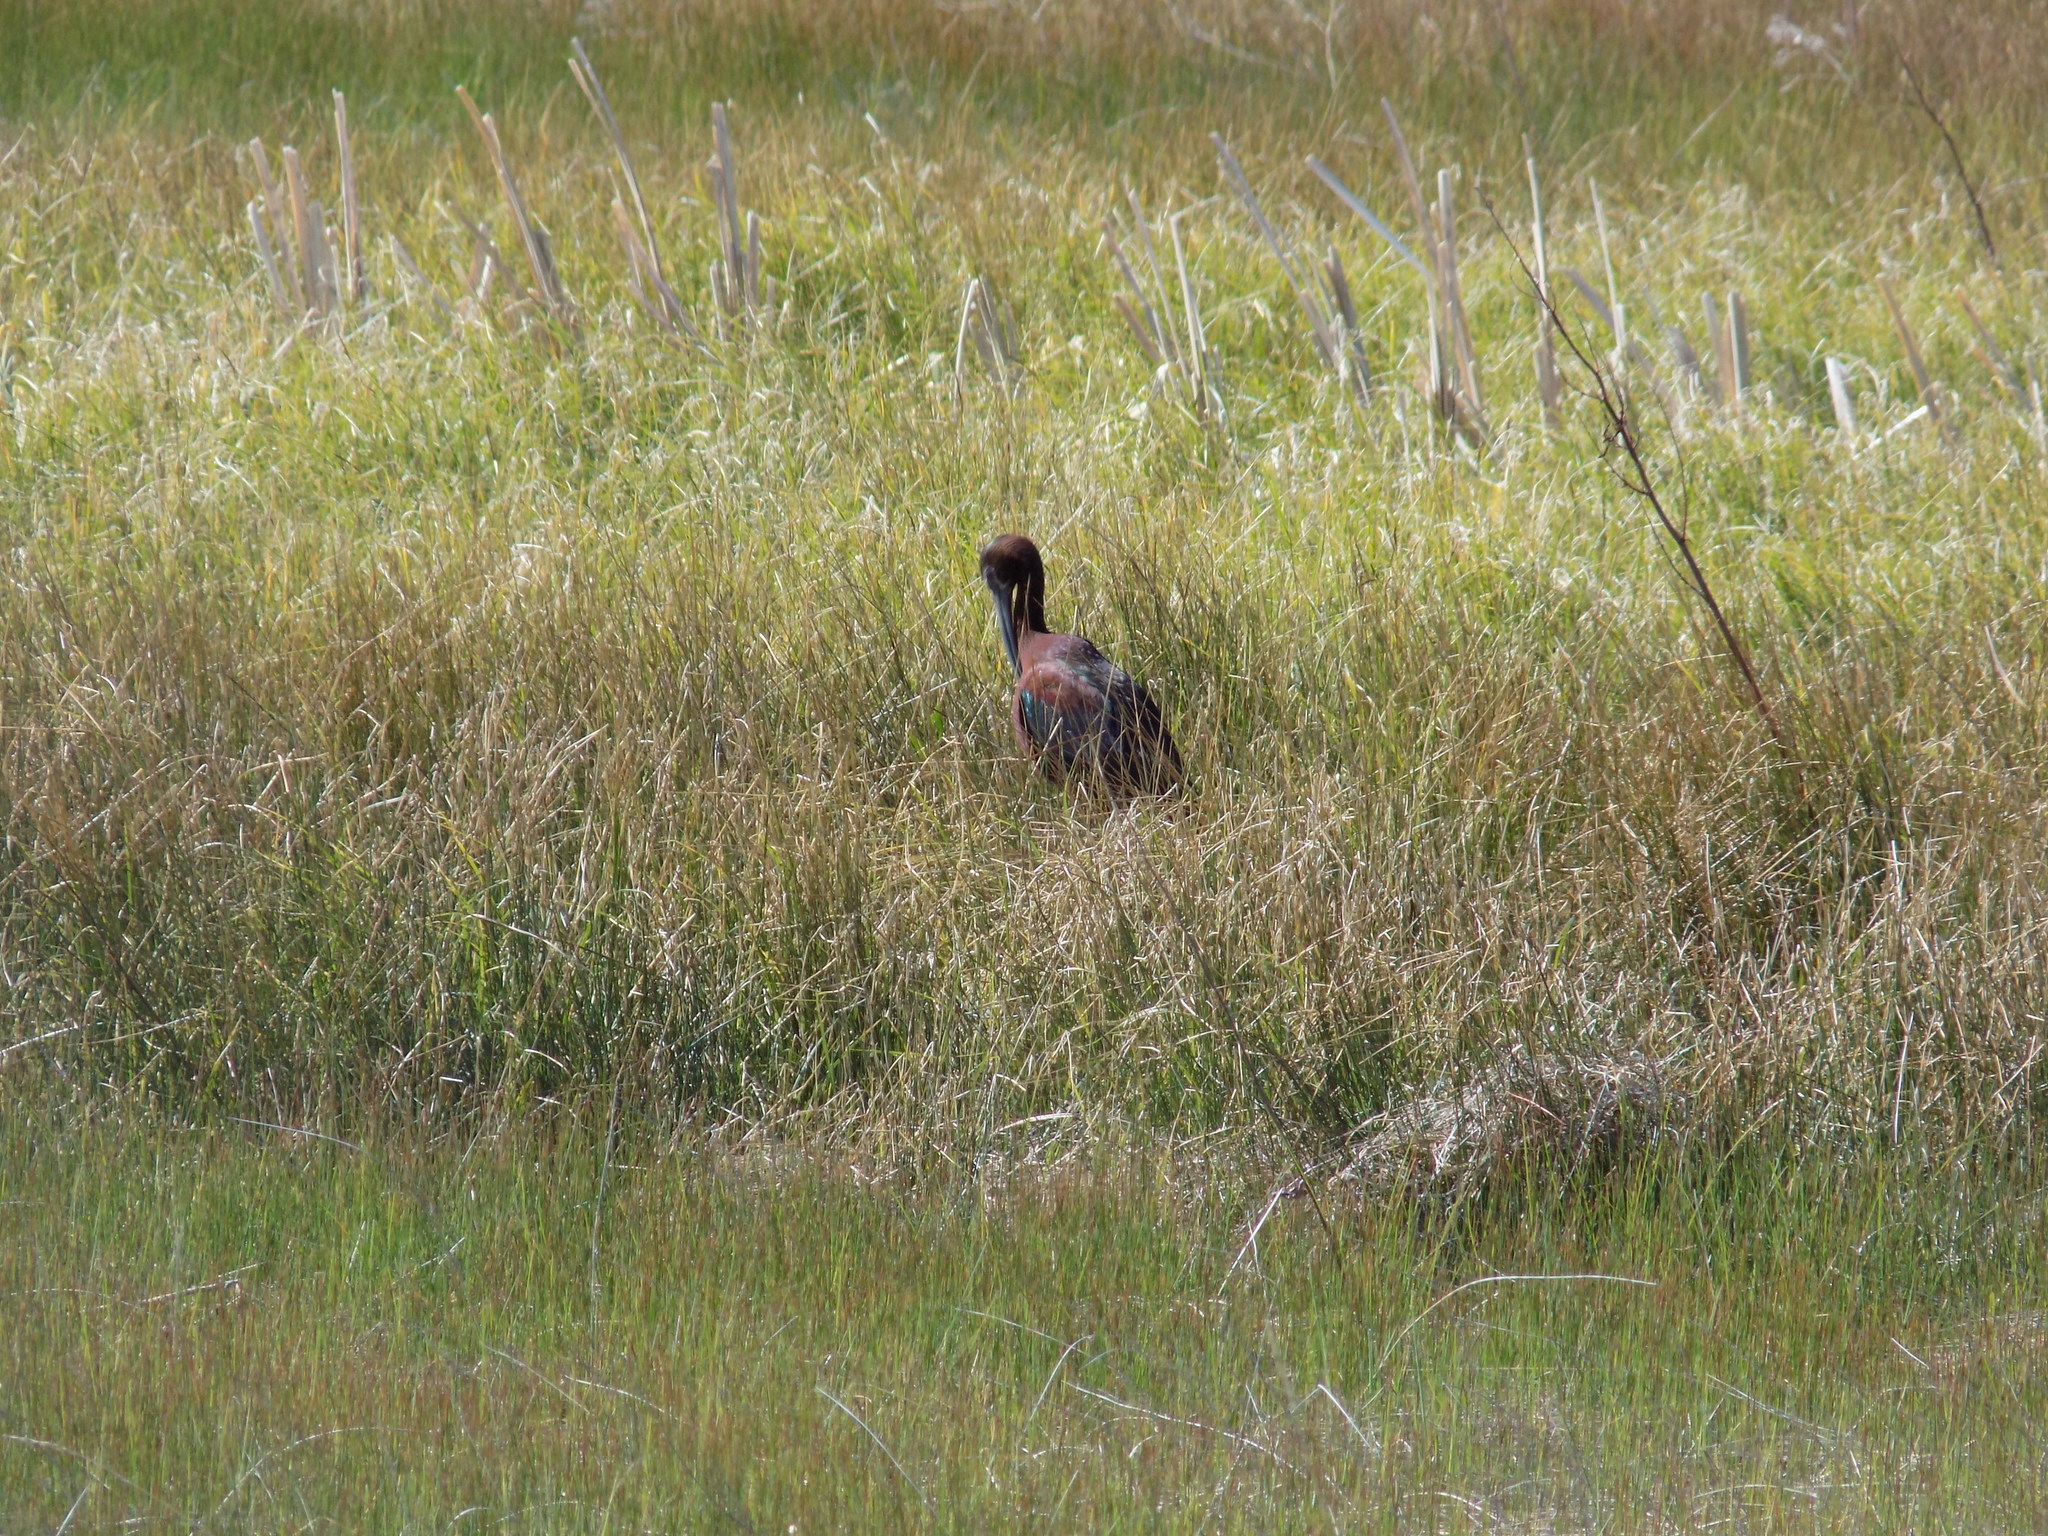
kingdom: Animalia
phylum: Chordata
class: Aves
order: Pelecaniformes
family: Threskiornithidae
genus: Plegadis
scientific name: Plegadis chihi
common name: White-faced ibis
